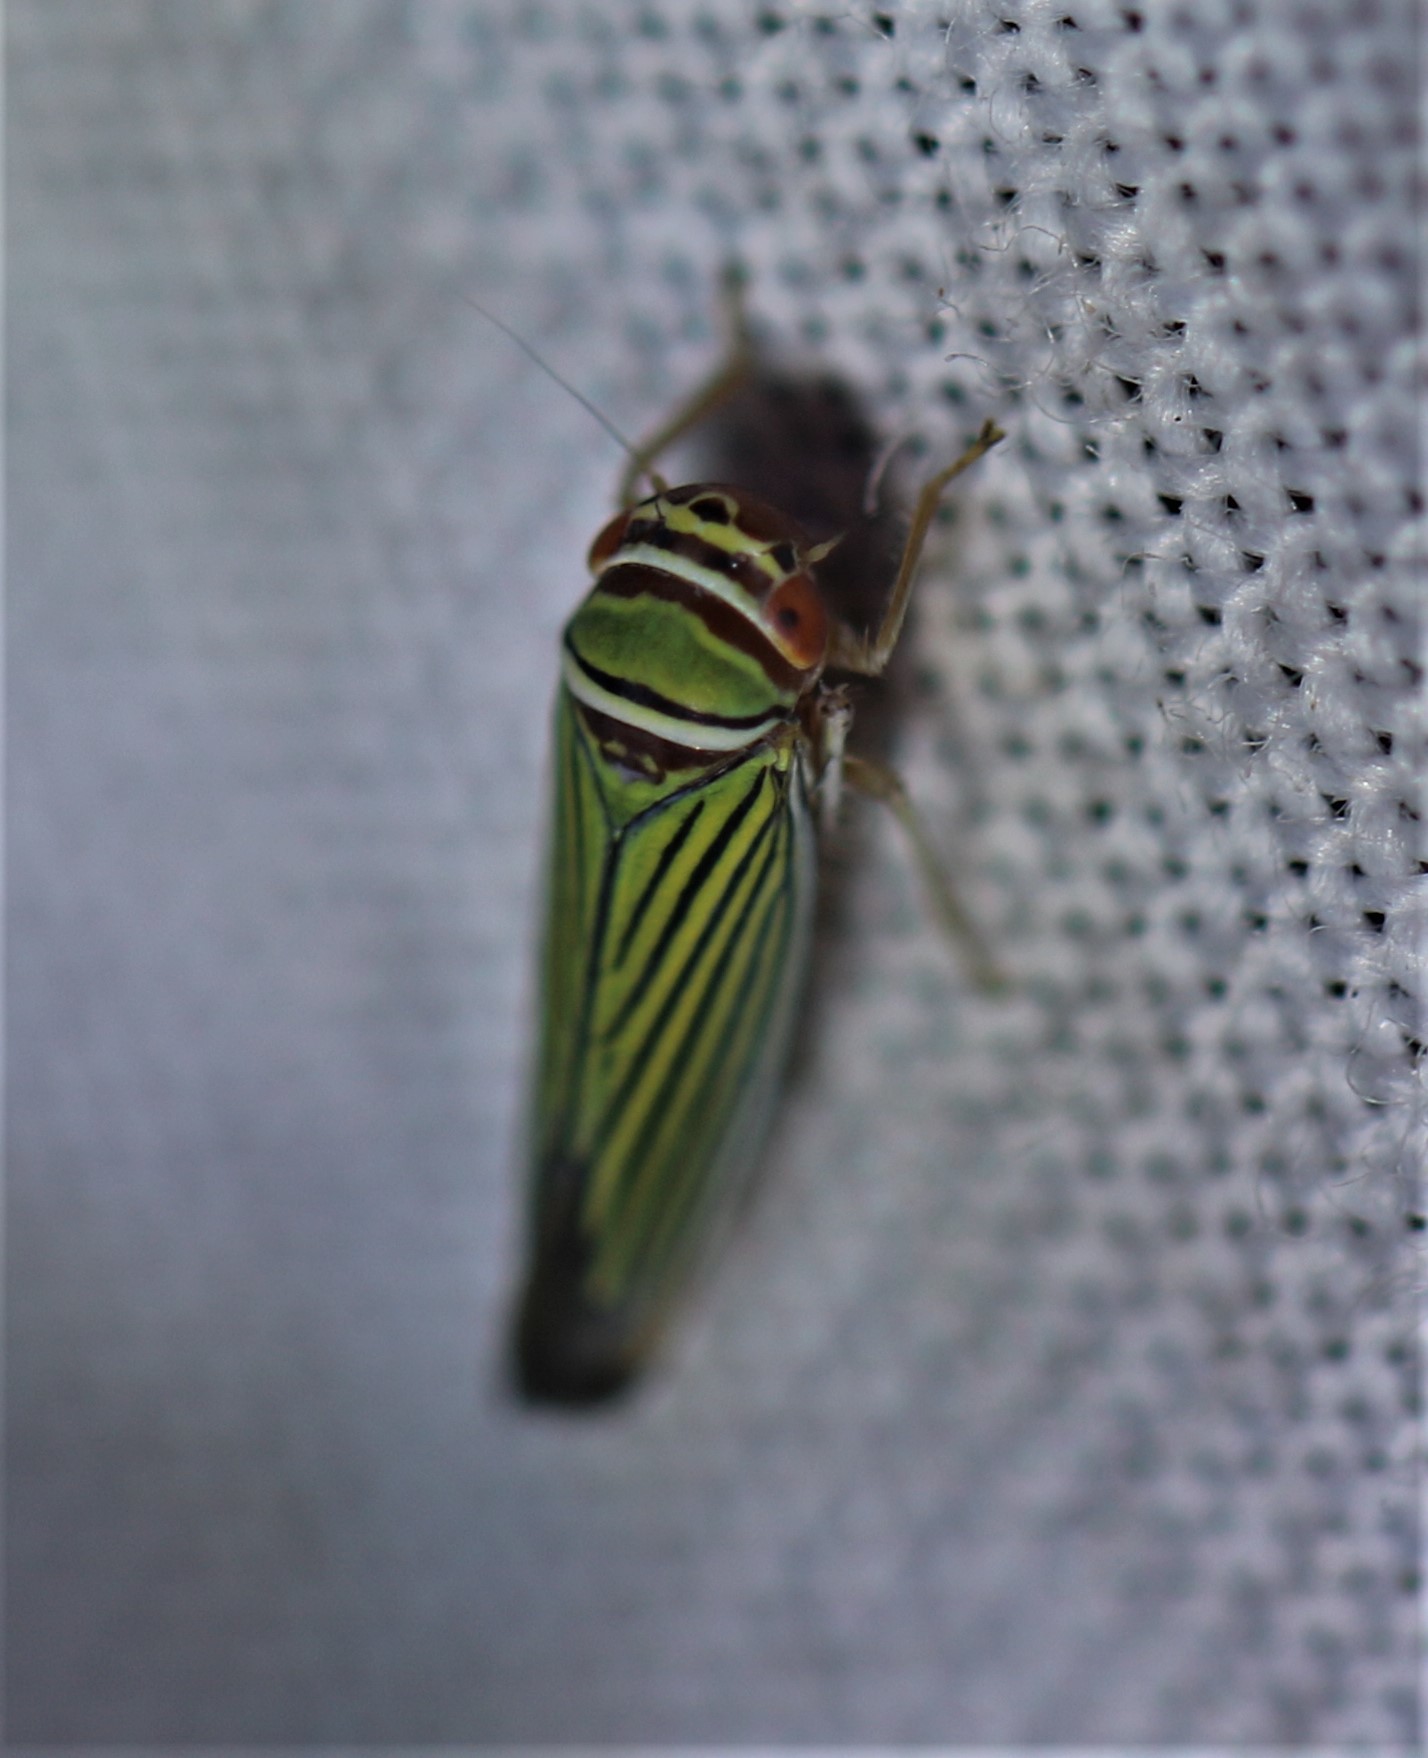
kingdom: Animalia
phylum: Arthropoda
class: Insecta
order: Hemiptera
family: Cicadellidae
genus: Tylozygus
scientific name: Tylozygus fuscolineellus
